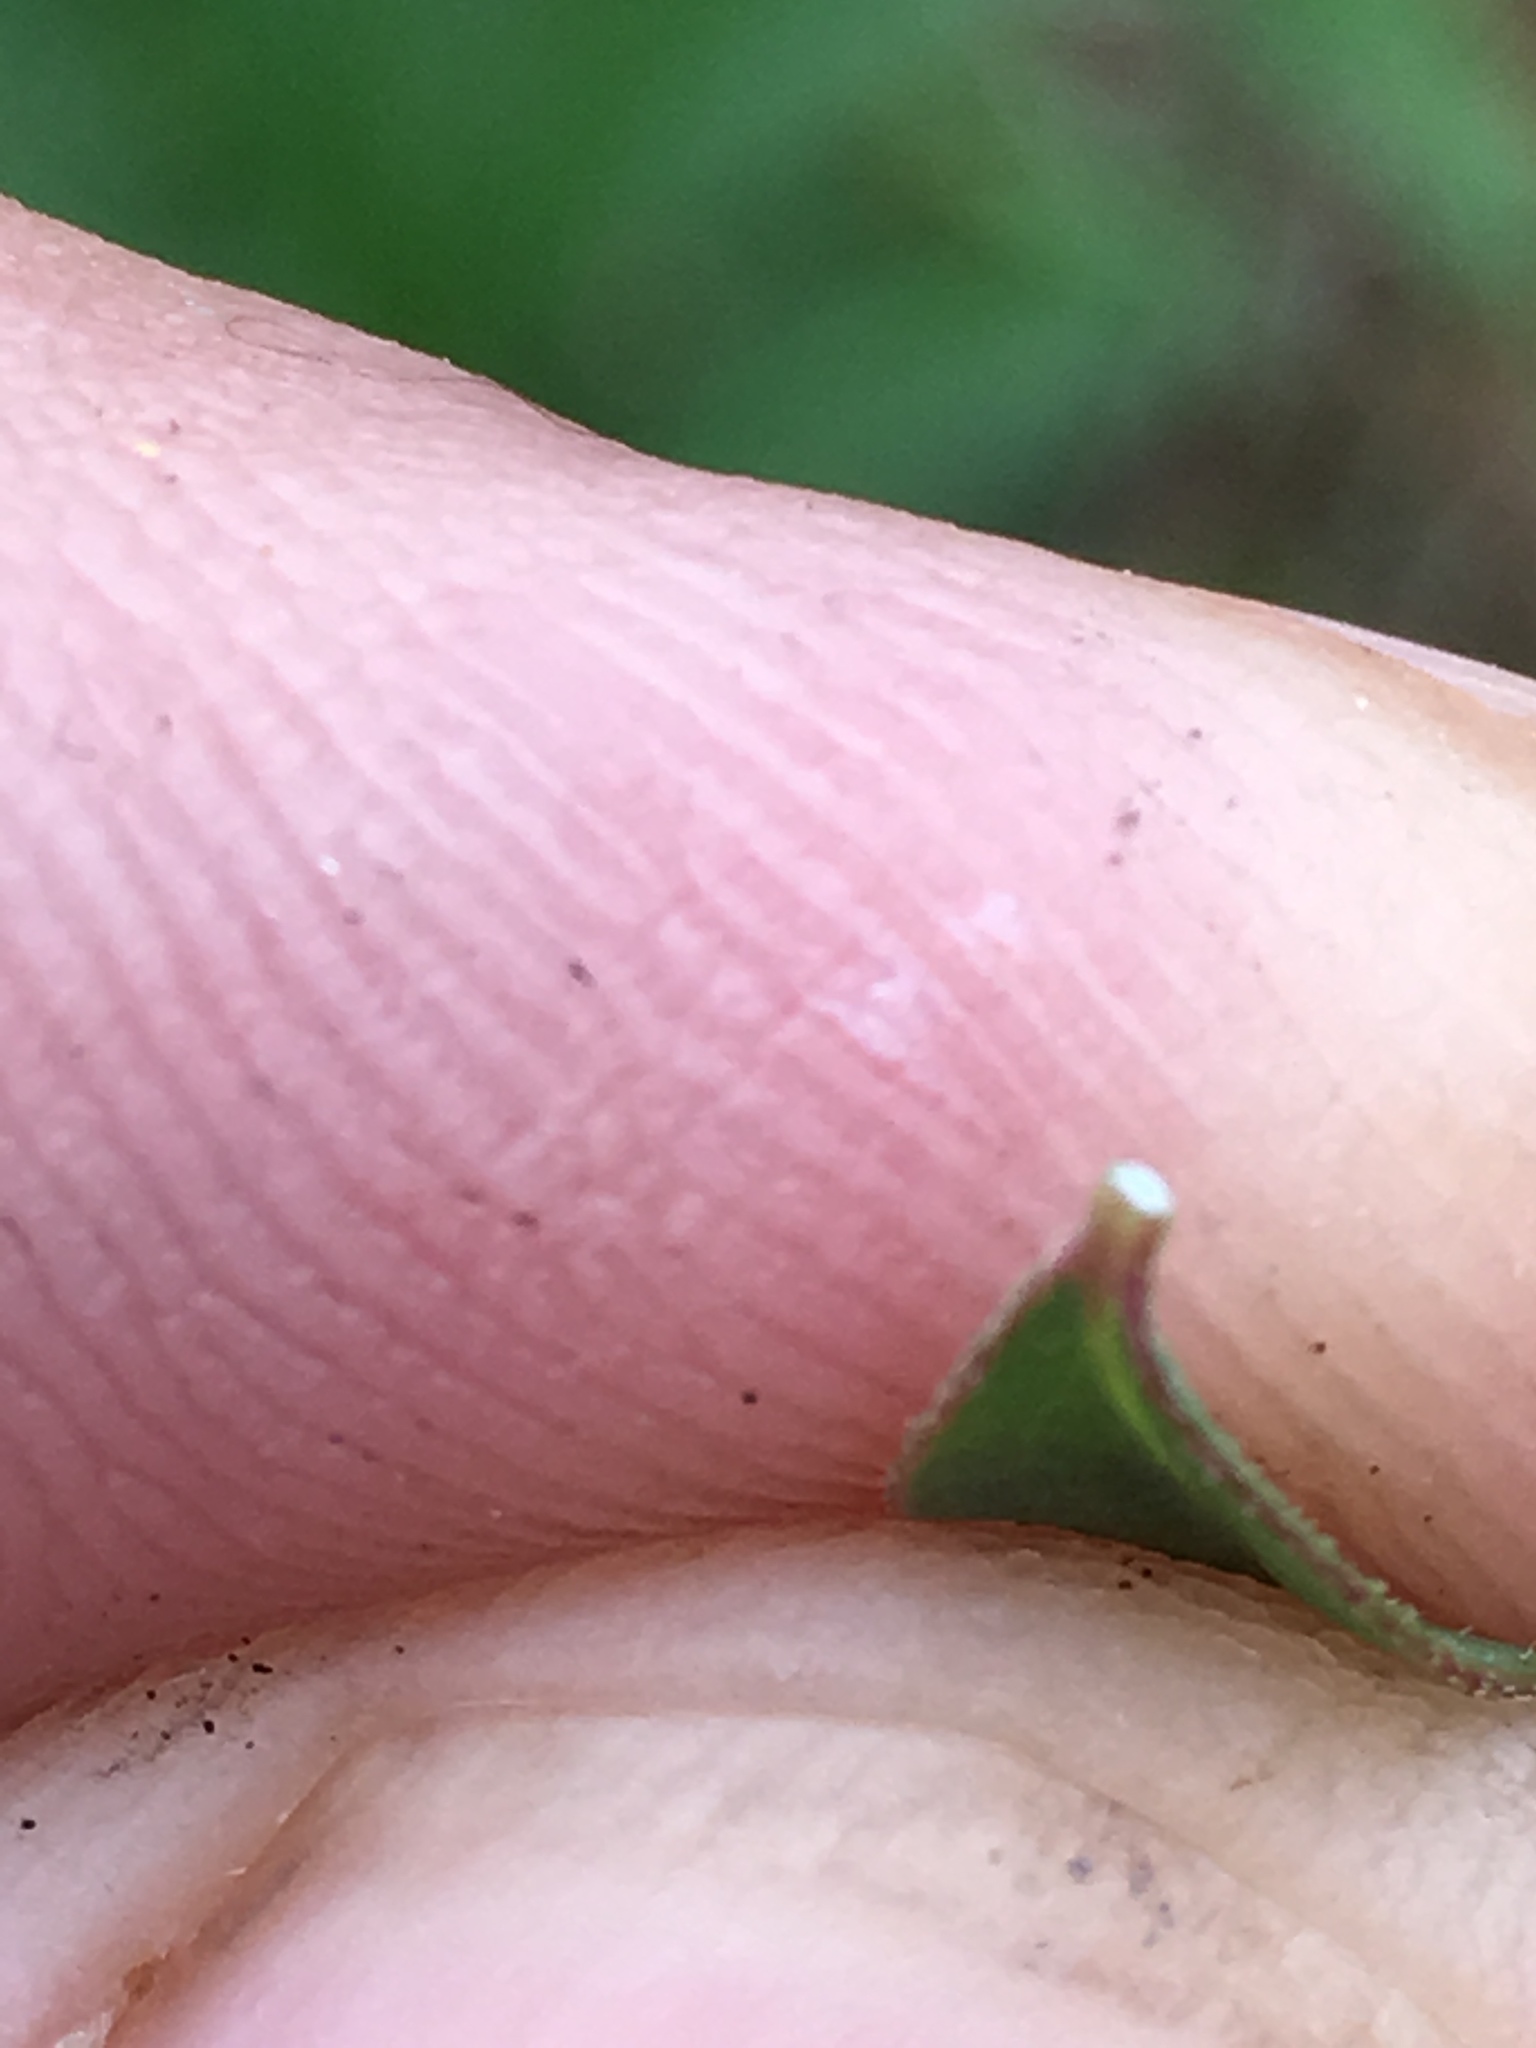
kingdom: Plantae
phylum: Tracheophyta
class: Magnoliopsida
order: Malpighiales
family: Euphorbiaceae
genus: Euphorbia
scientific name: Euphorbia curtisii
